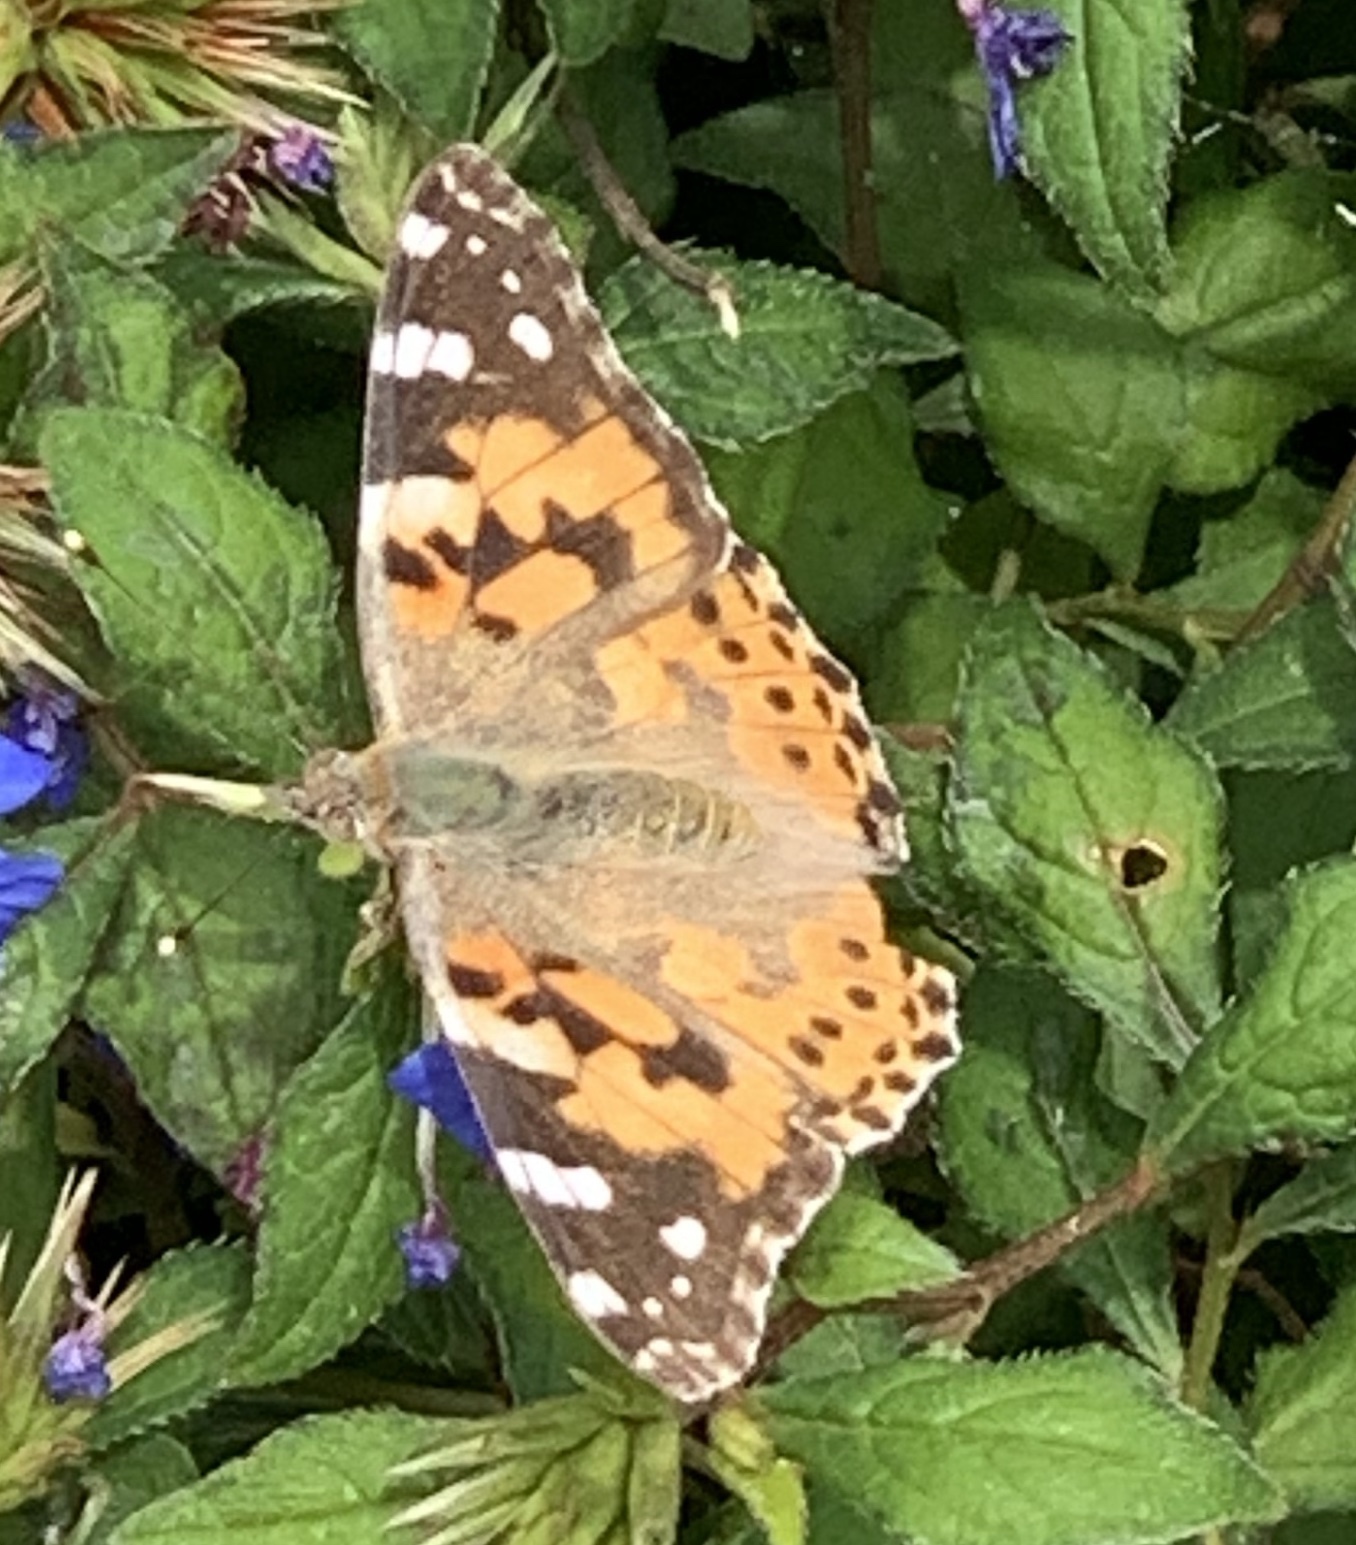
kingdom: Animalia
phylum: Arthropoda
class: Insecta
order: Lepidoptera
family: Nymphalidae
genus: Vanessa
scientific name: Vanessa cardui
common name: Painted lady
